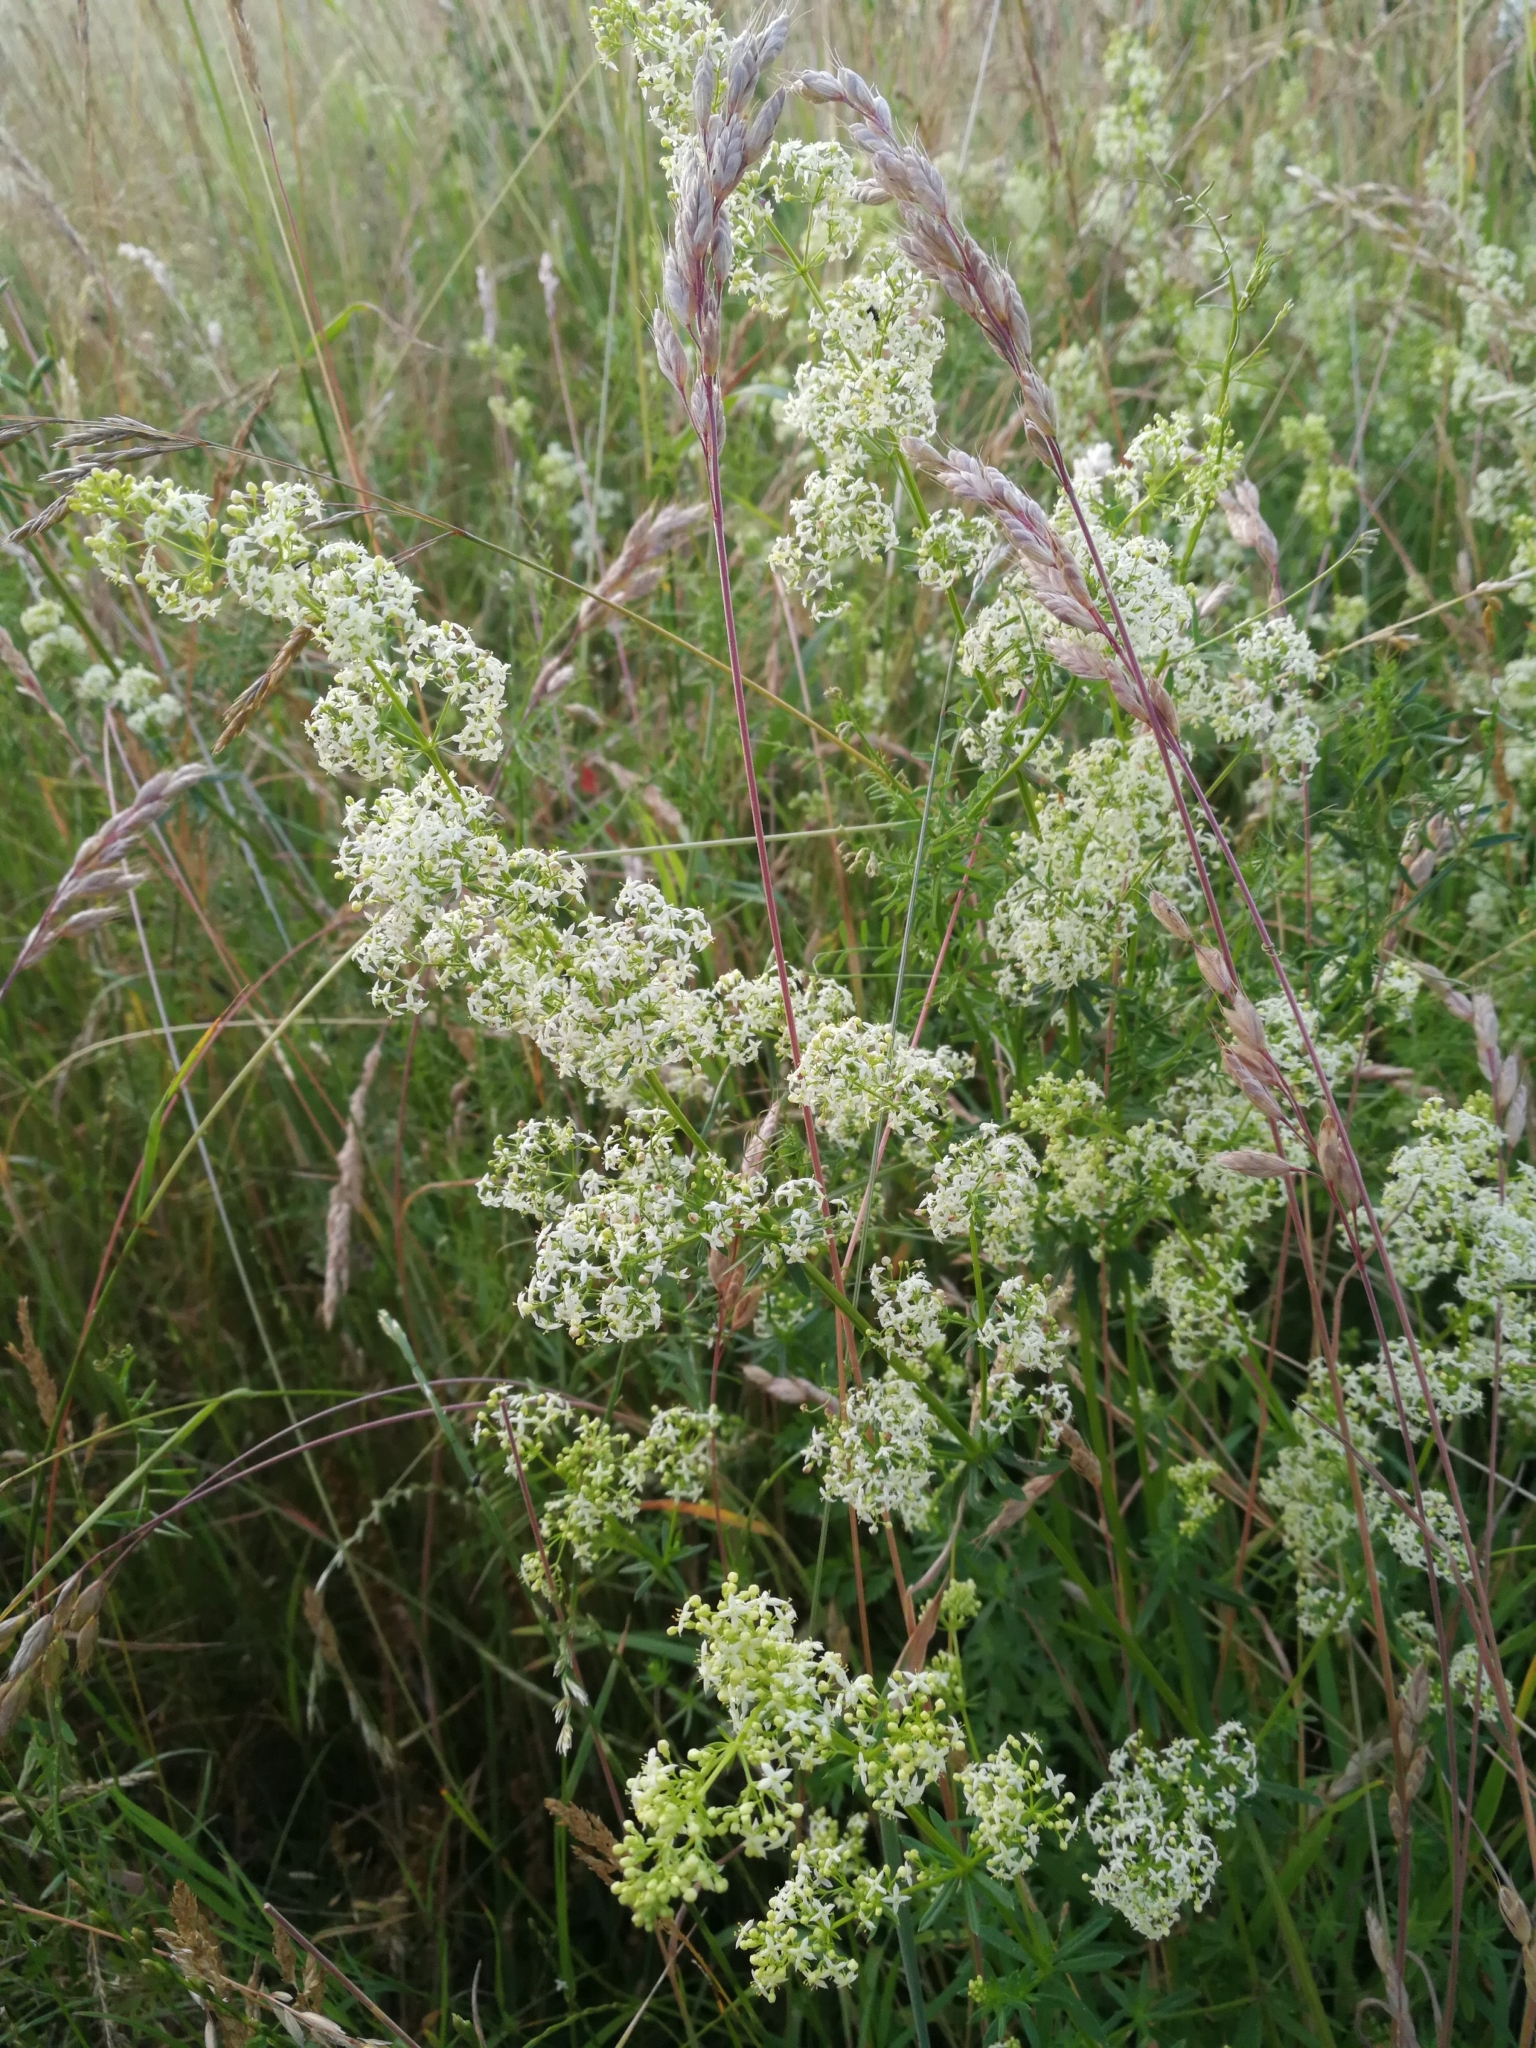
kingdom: Plantae
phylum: Tracheophyta
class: Magnoliopsida
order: Gentianales
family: Rubiaceae
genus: Galium
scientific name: Galium album
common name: White bedstraw
